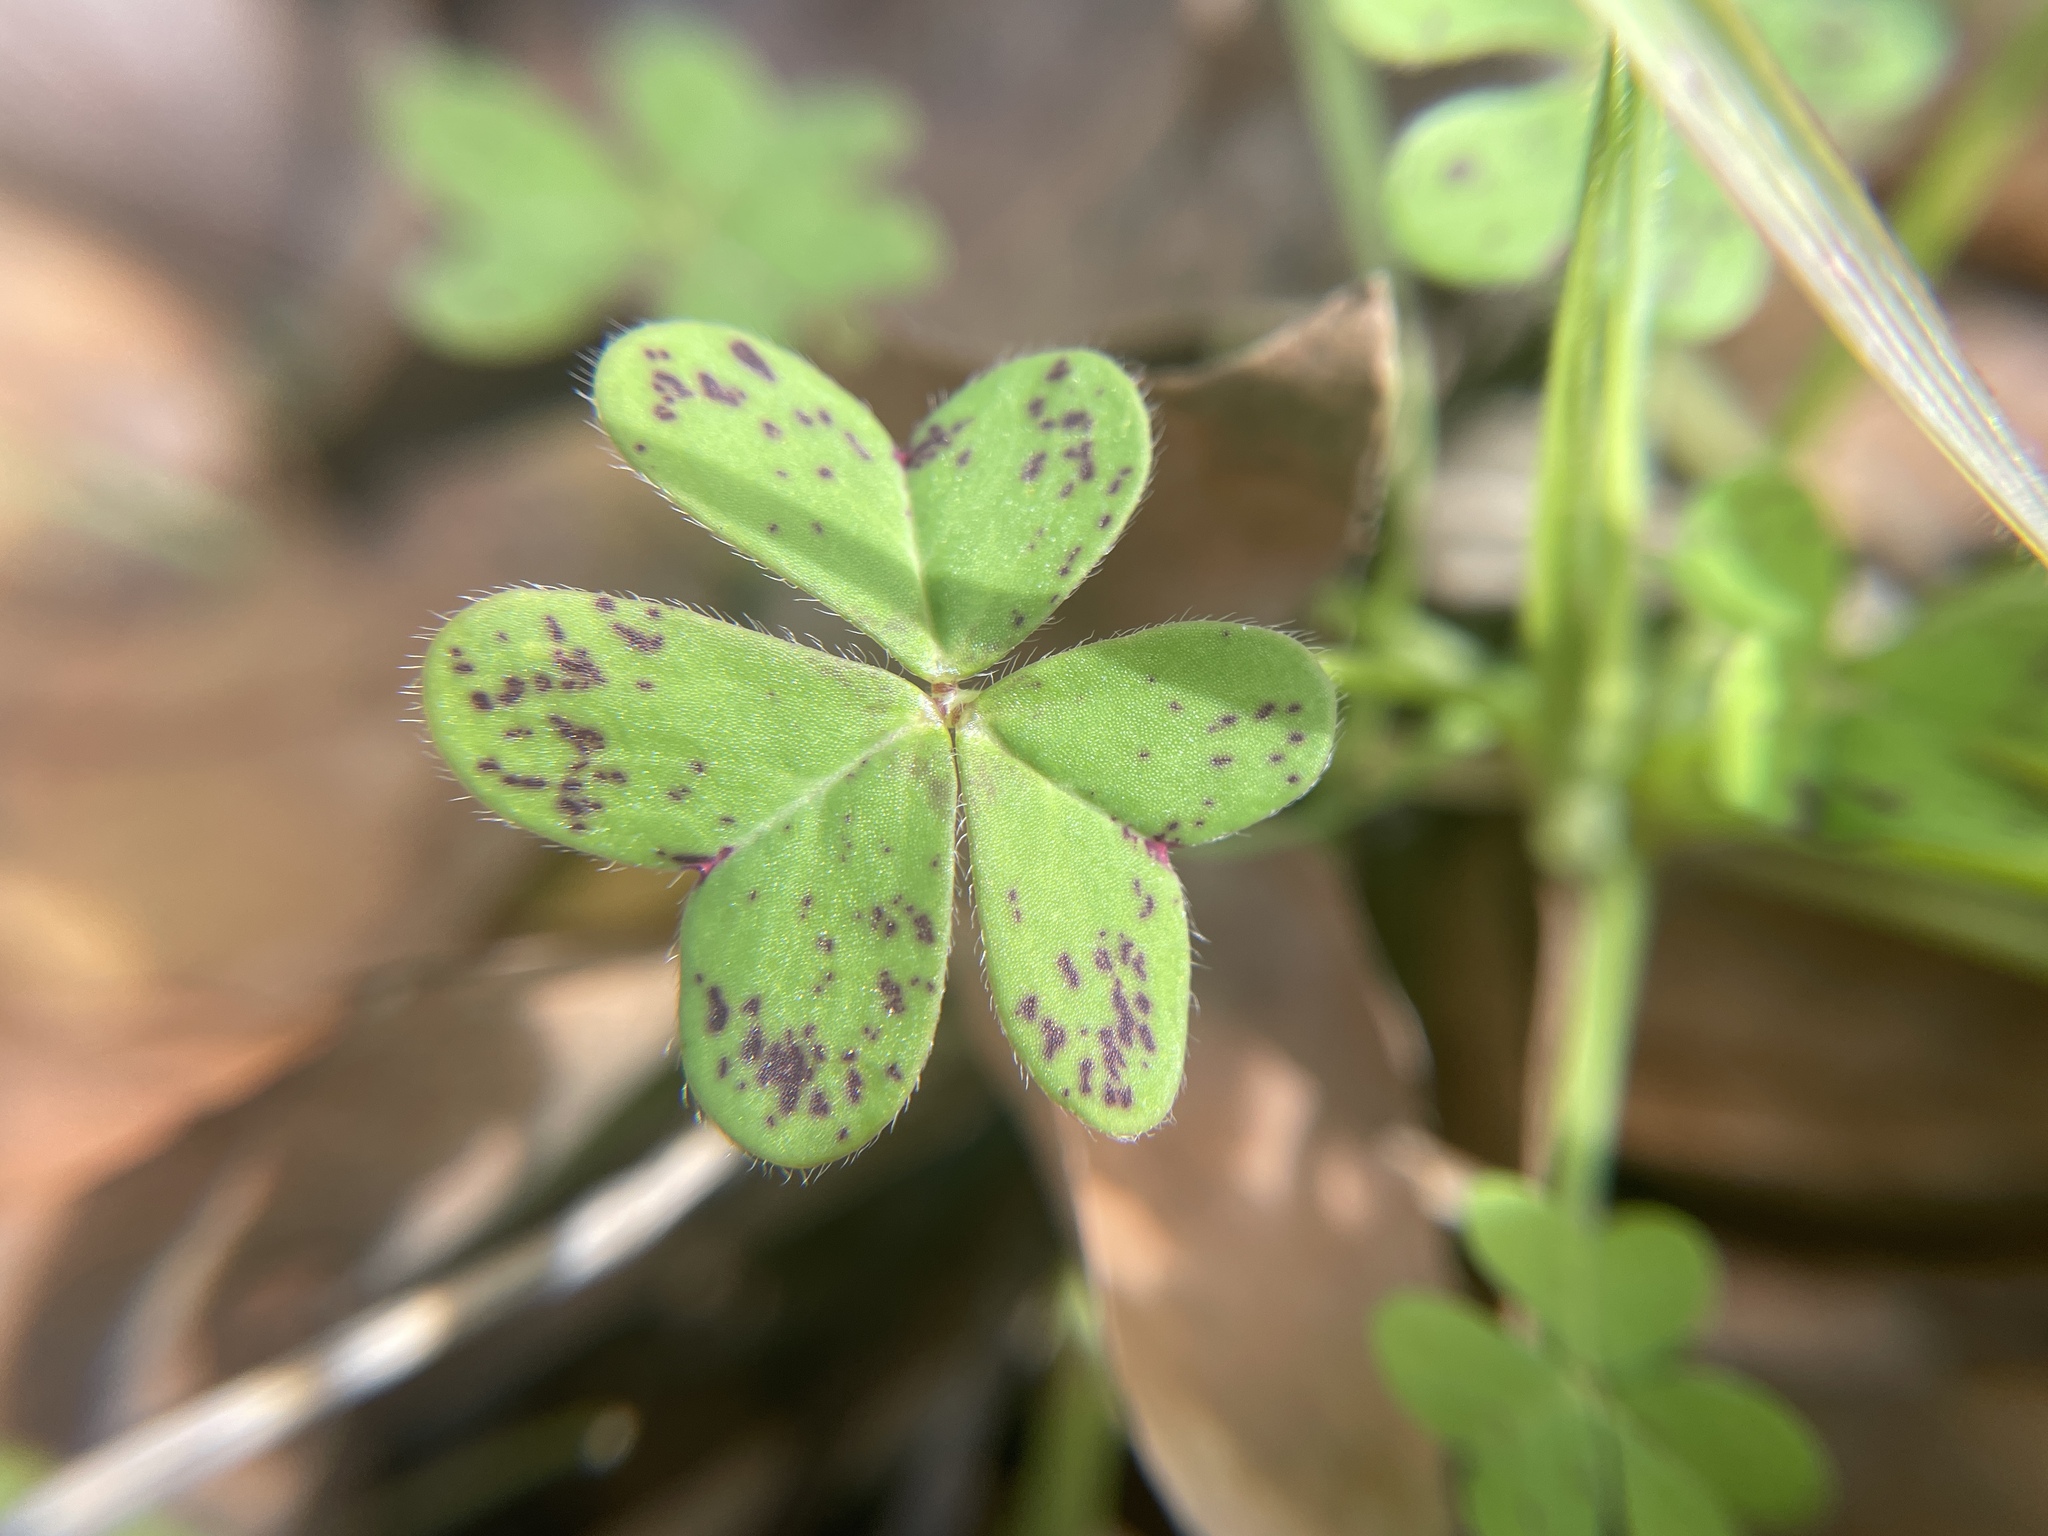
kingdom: Plantae
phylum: Tracheophyta
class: Magnoliopsida
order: Oxalidales
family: Oxalidaceae
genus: Oxalis
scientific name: Oxalis pes-caprae
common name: Bermuda-buttercup
